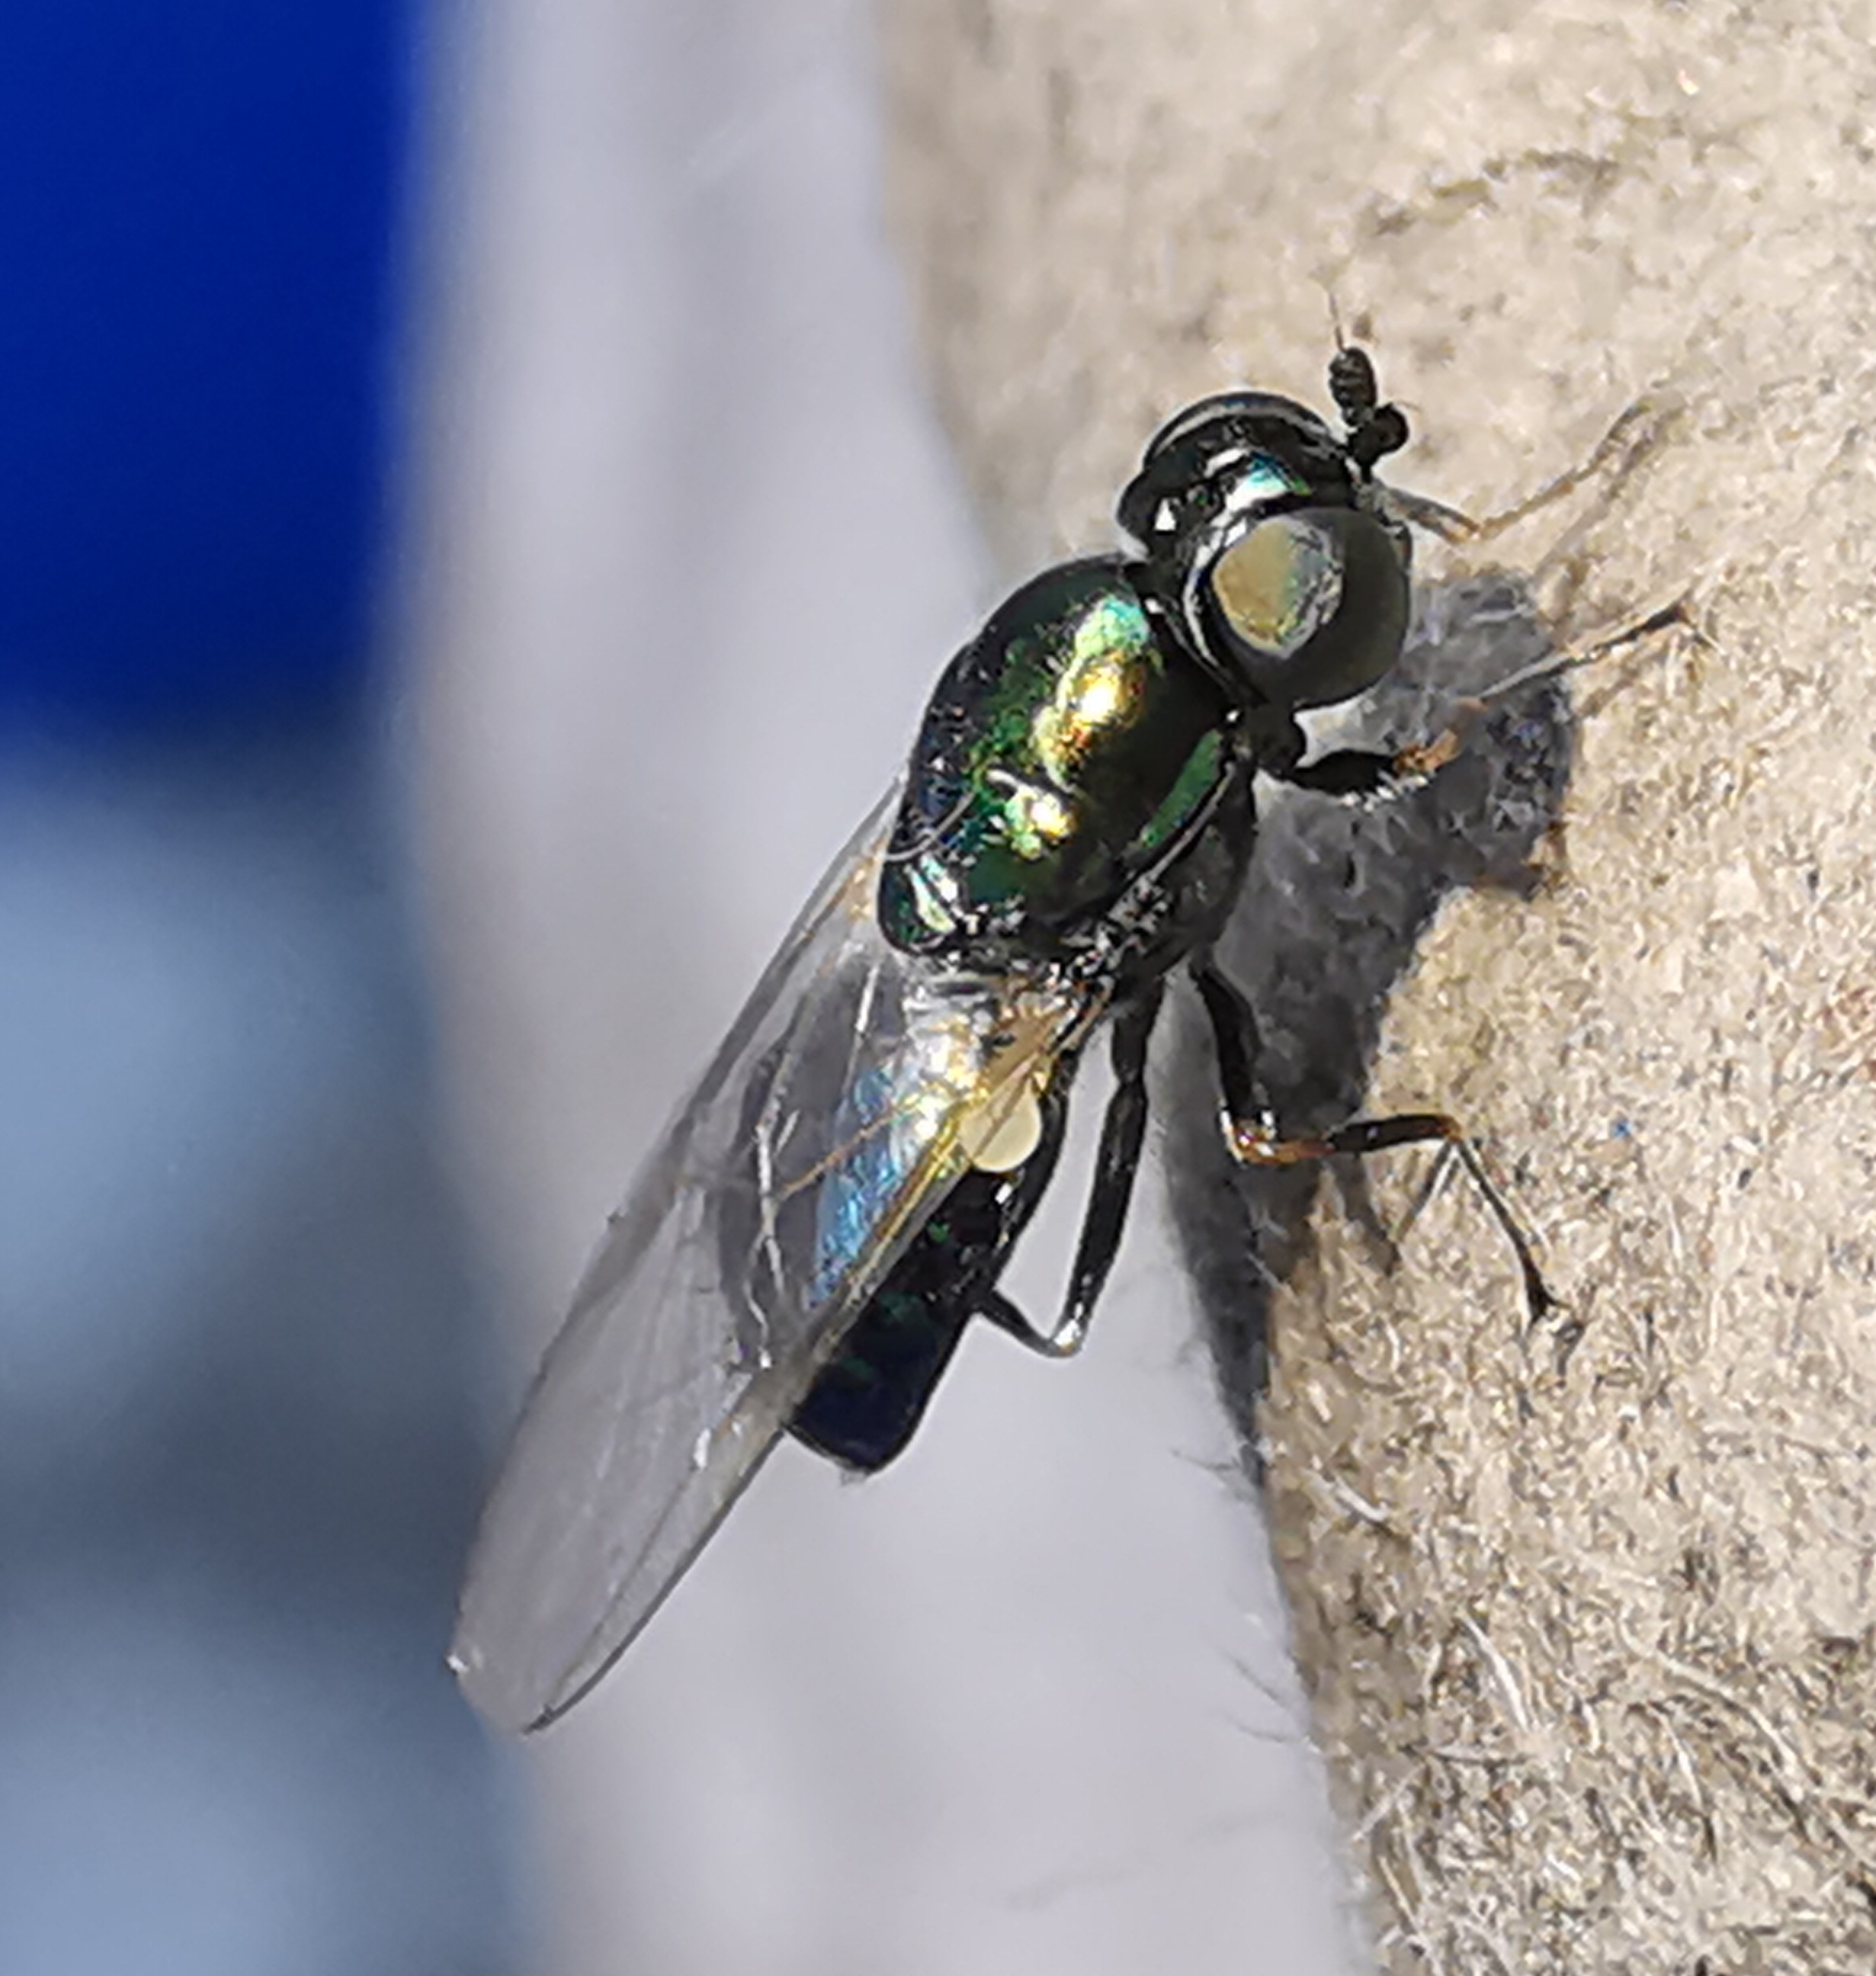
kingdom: Animalia
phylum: Arthropoda
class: Insecta
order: Diptera
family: Stratiomyidae
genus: Microchrysa
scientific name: Microchrysa polita
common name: Black-horned gem
